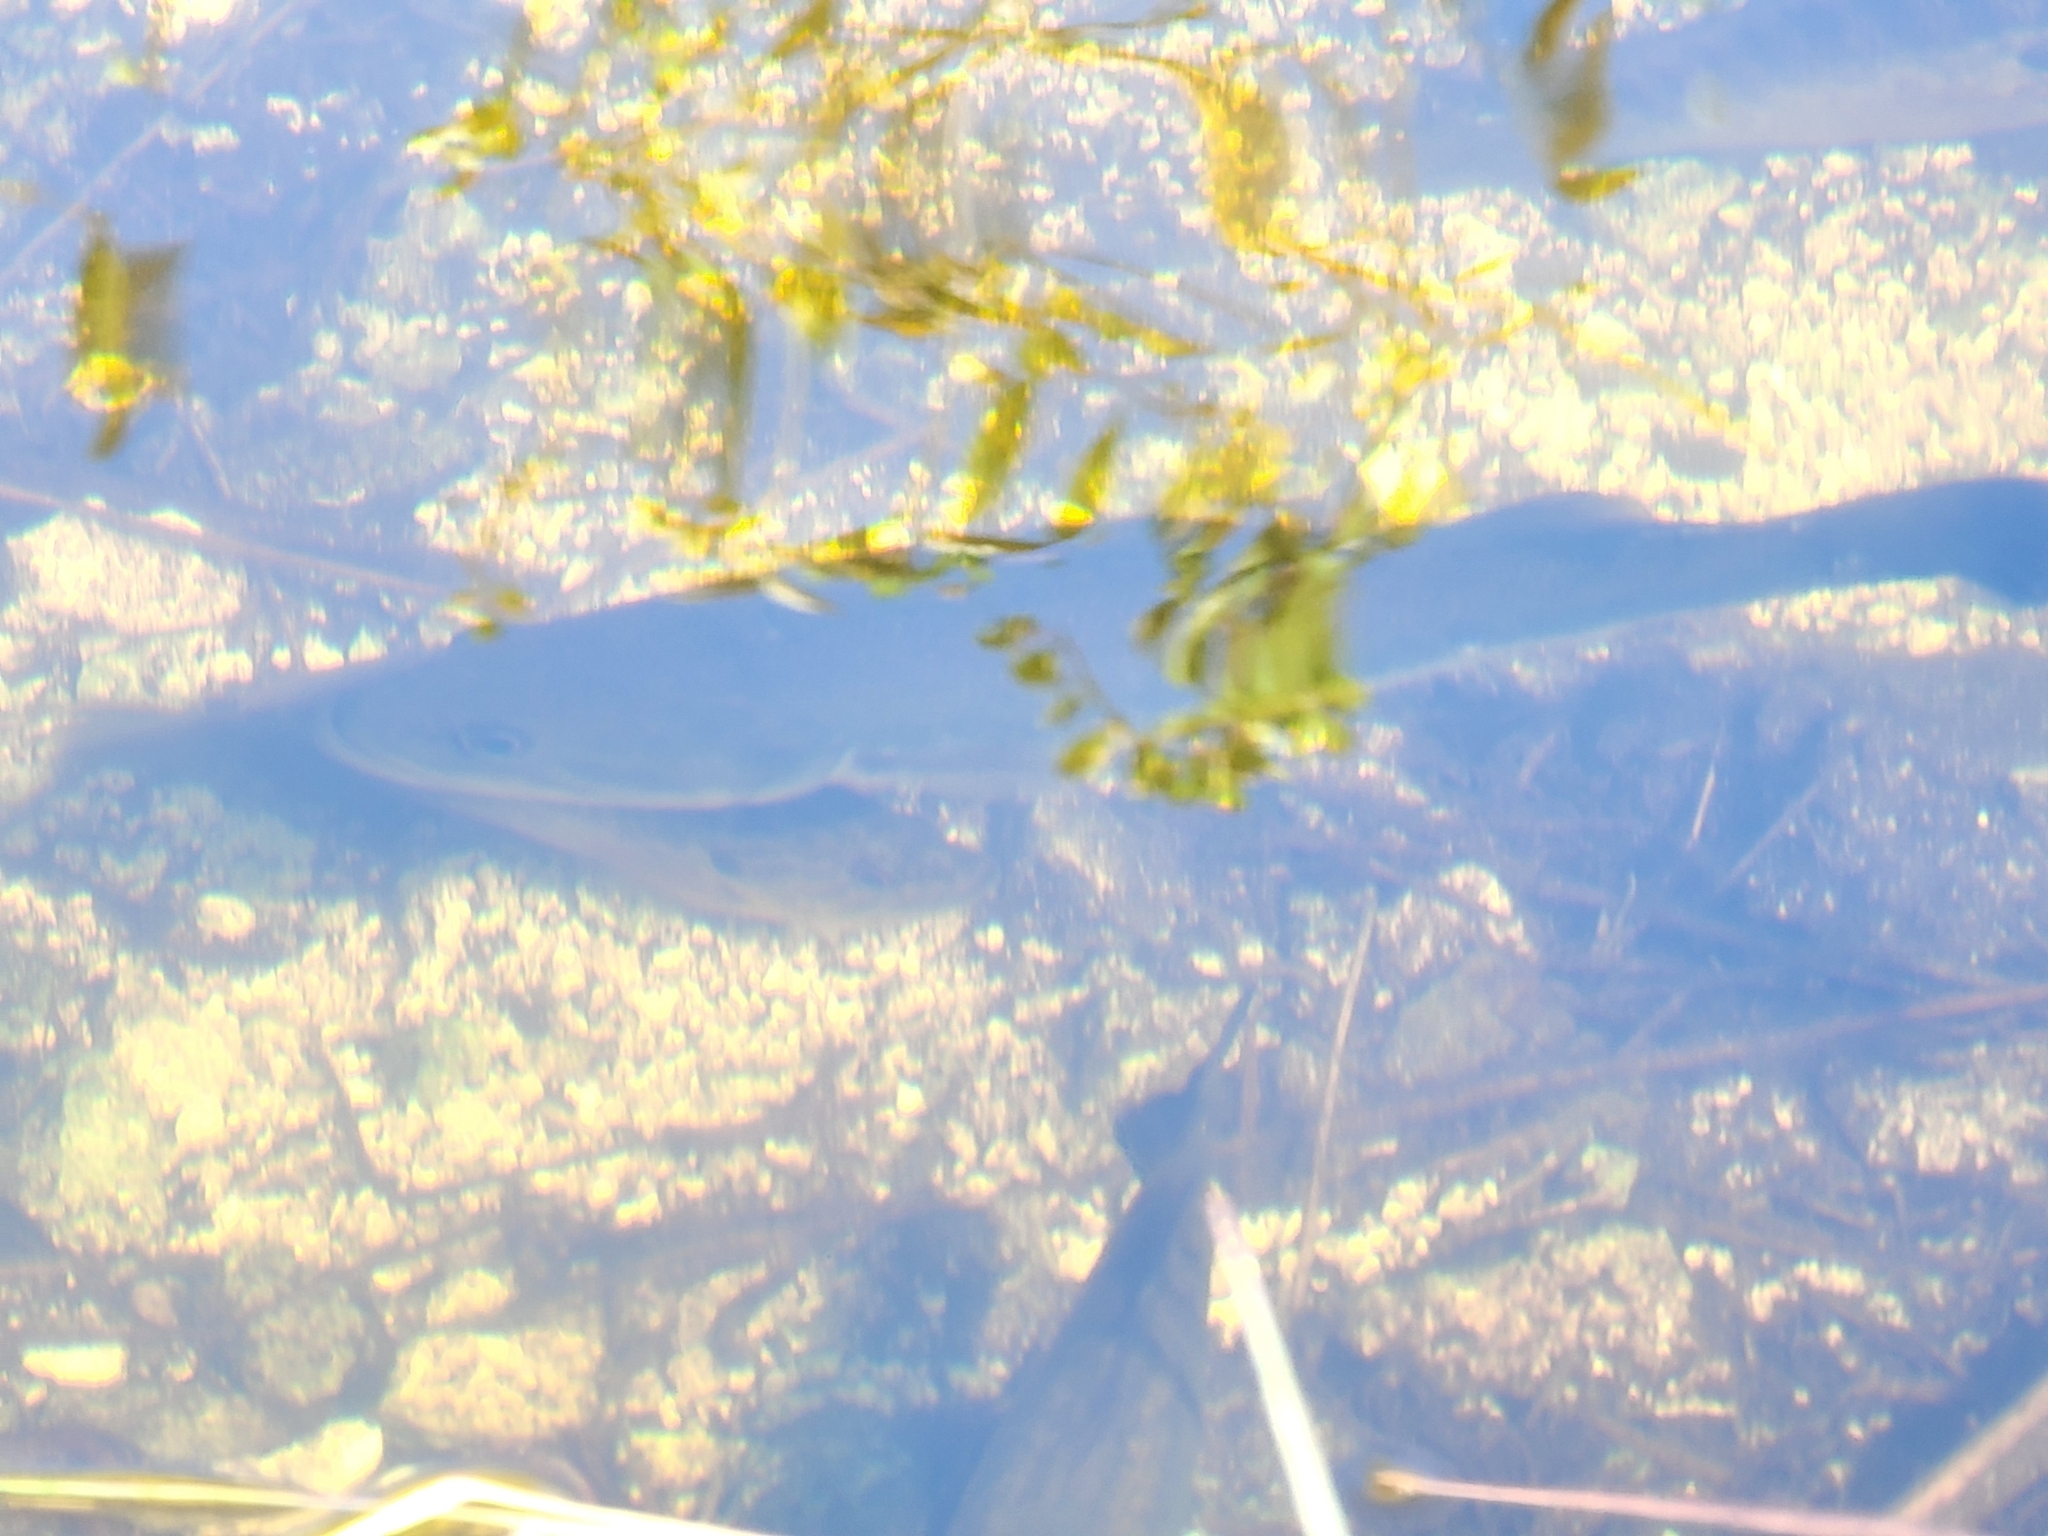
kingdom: Animalia
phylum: Chordata
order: Perciformes
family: Centrarchidae
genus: Micropterus
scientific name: Micropterus salmoides
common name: Largemouth bass
